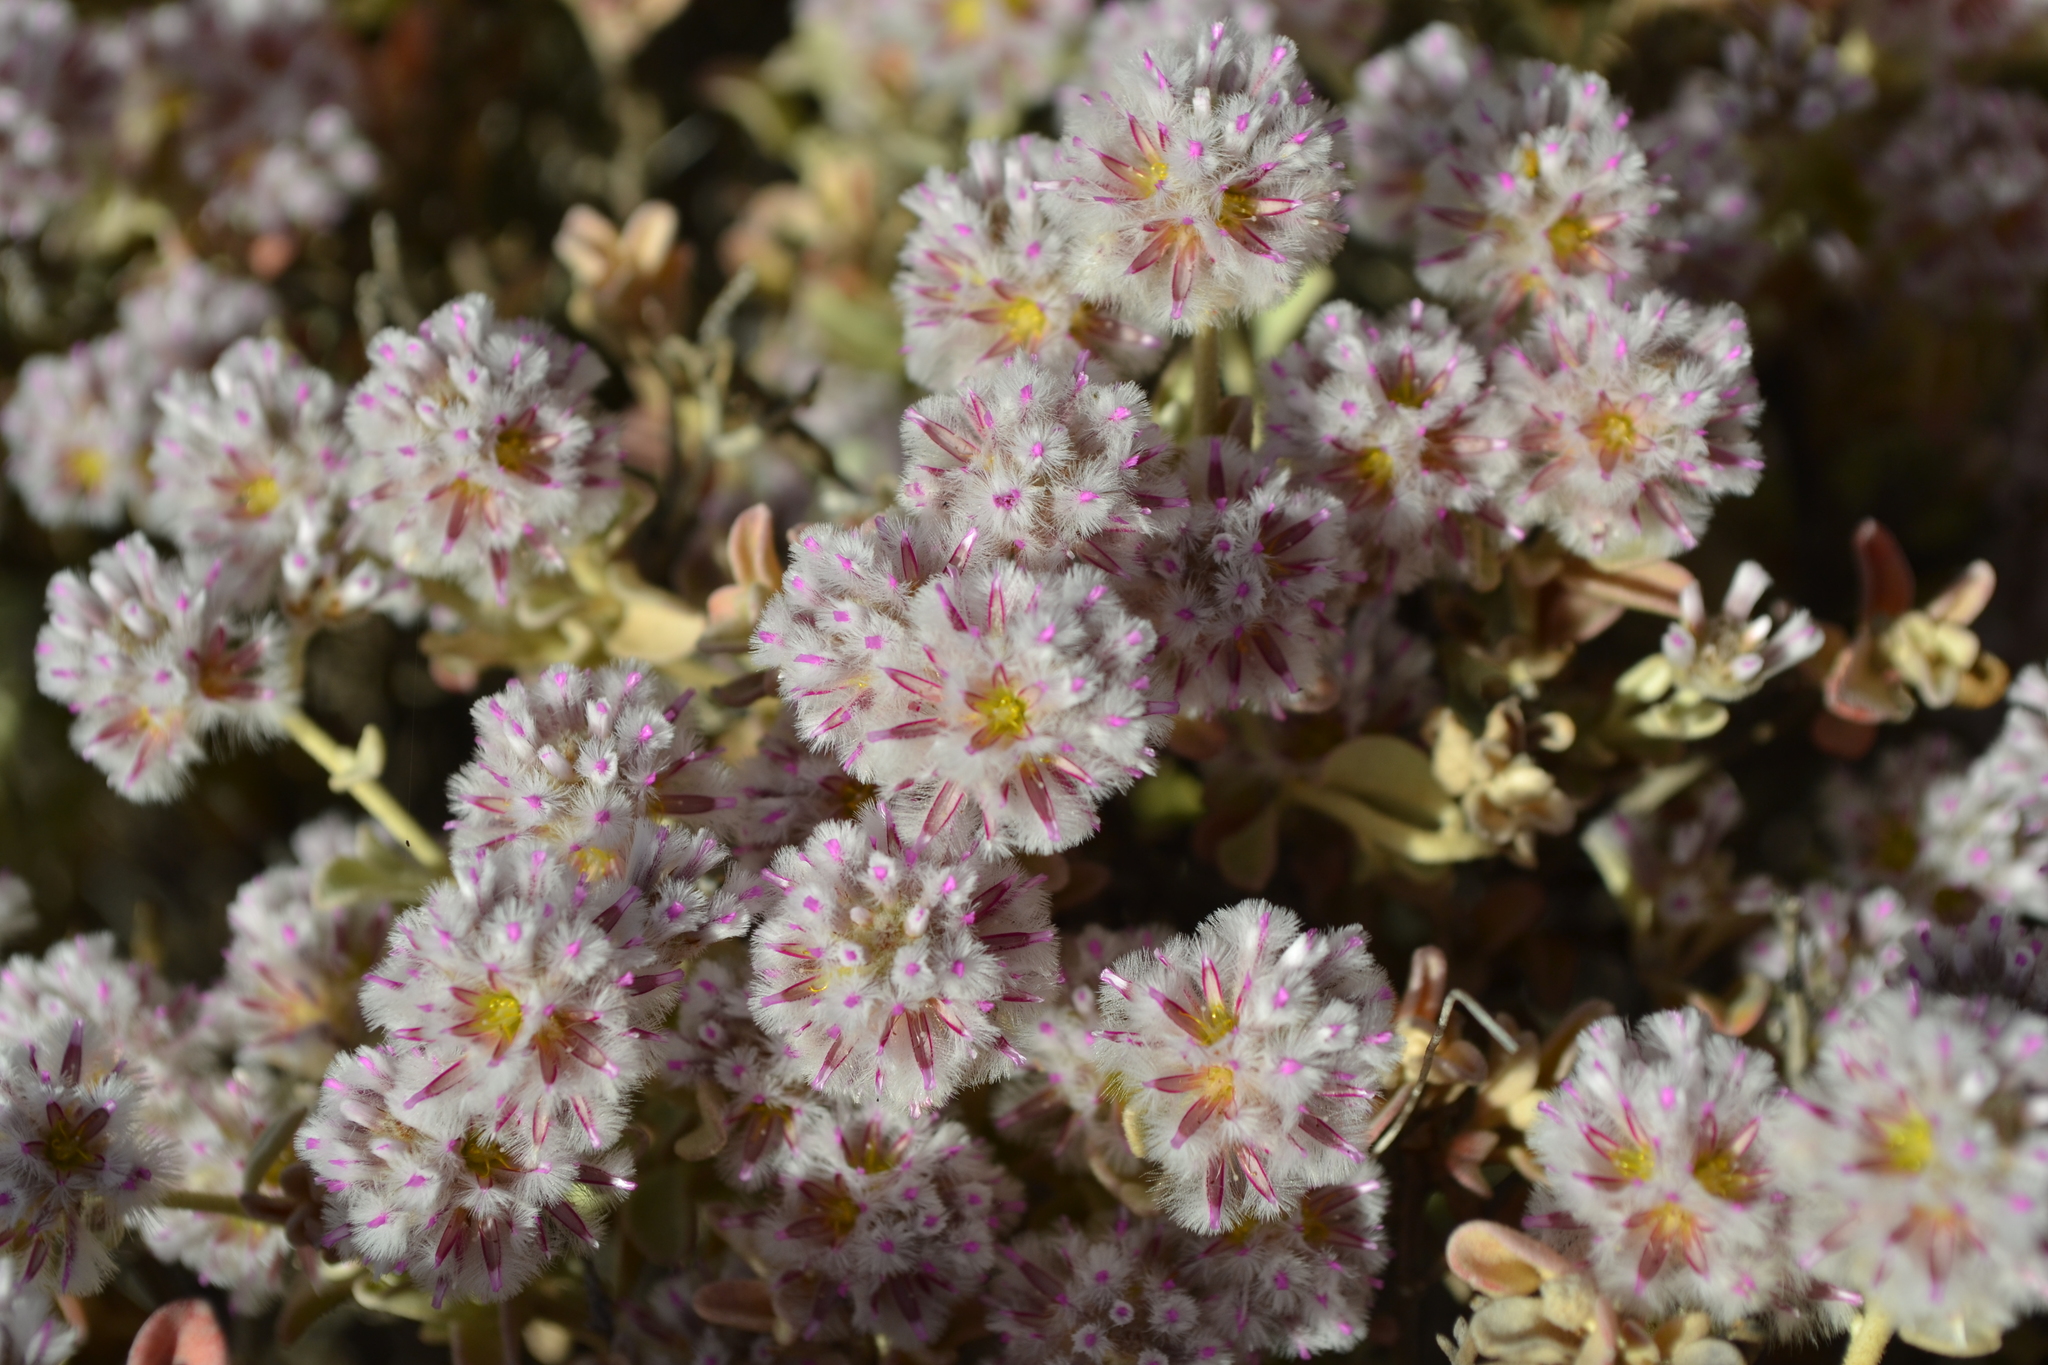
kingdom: Plantae
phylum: Tracheophyta
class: Magnoliopsida
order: Caryophyllales
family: Amaranthaceae
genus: Ptilotus
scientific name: Ptilotus obovatus
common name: Cottonbush
